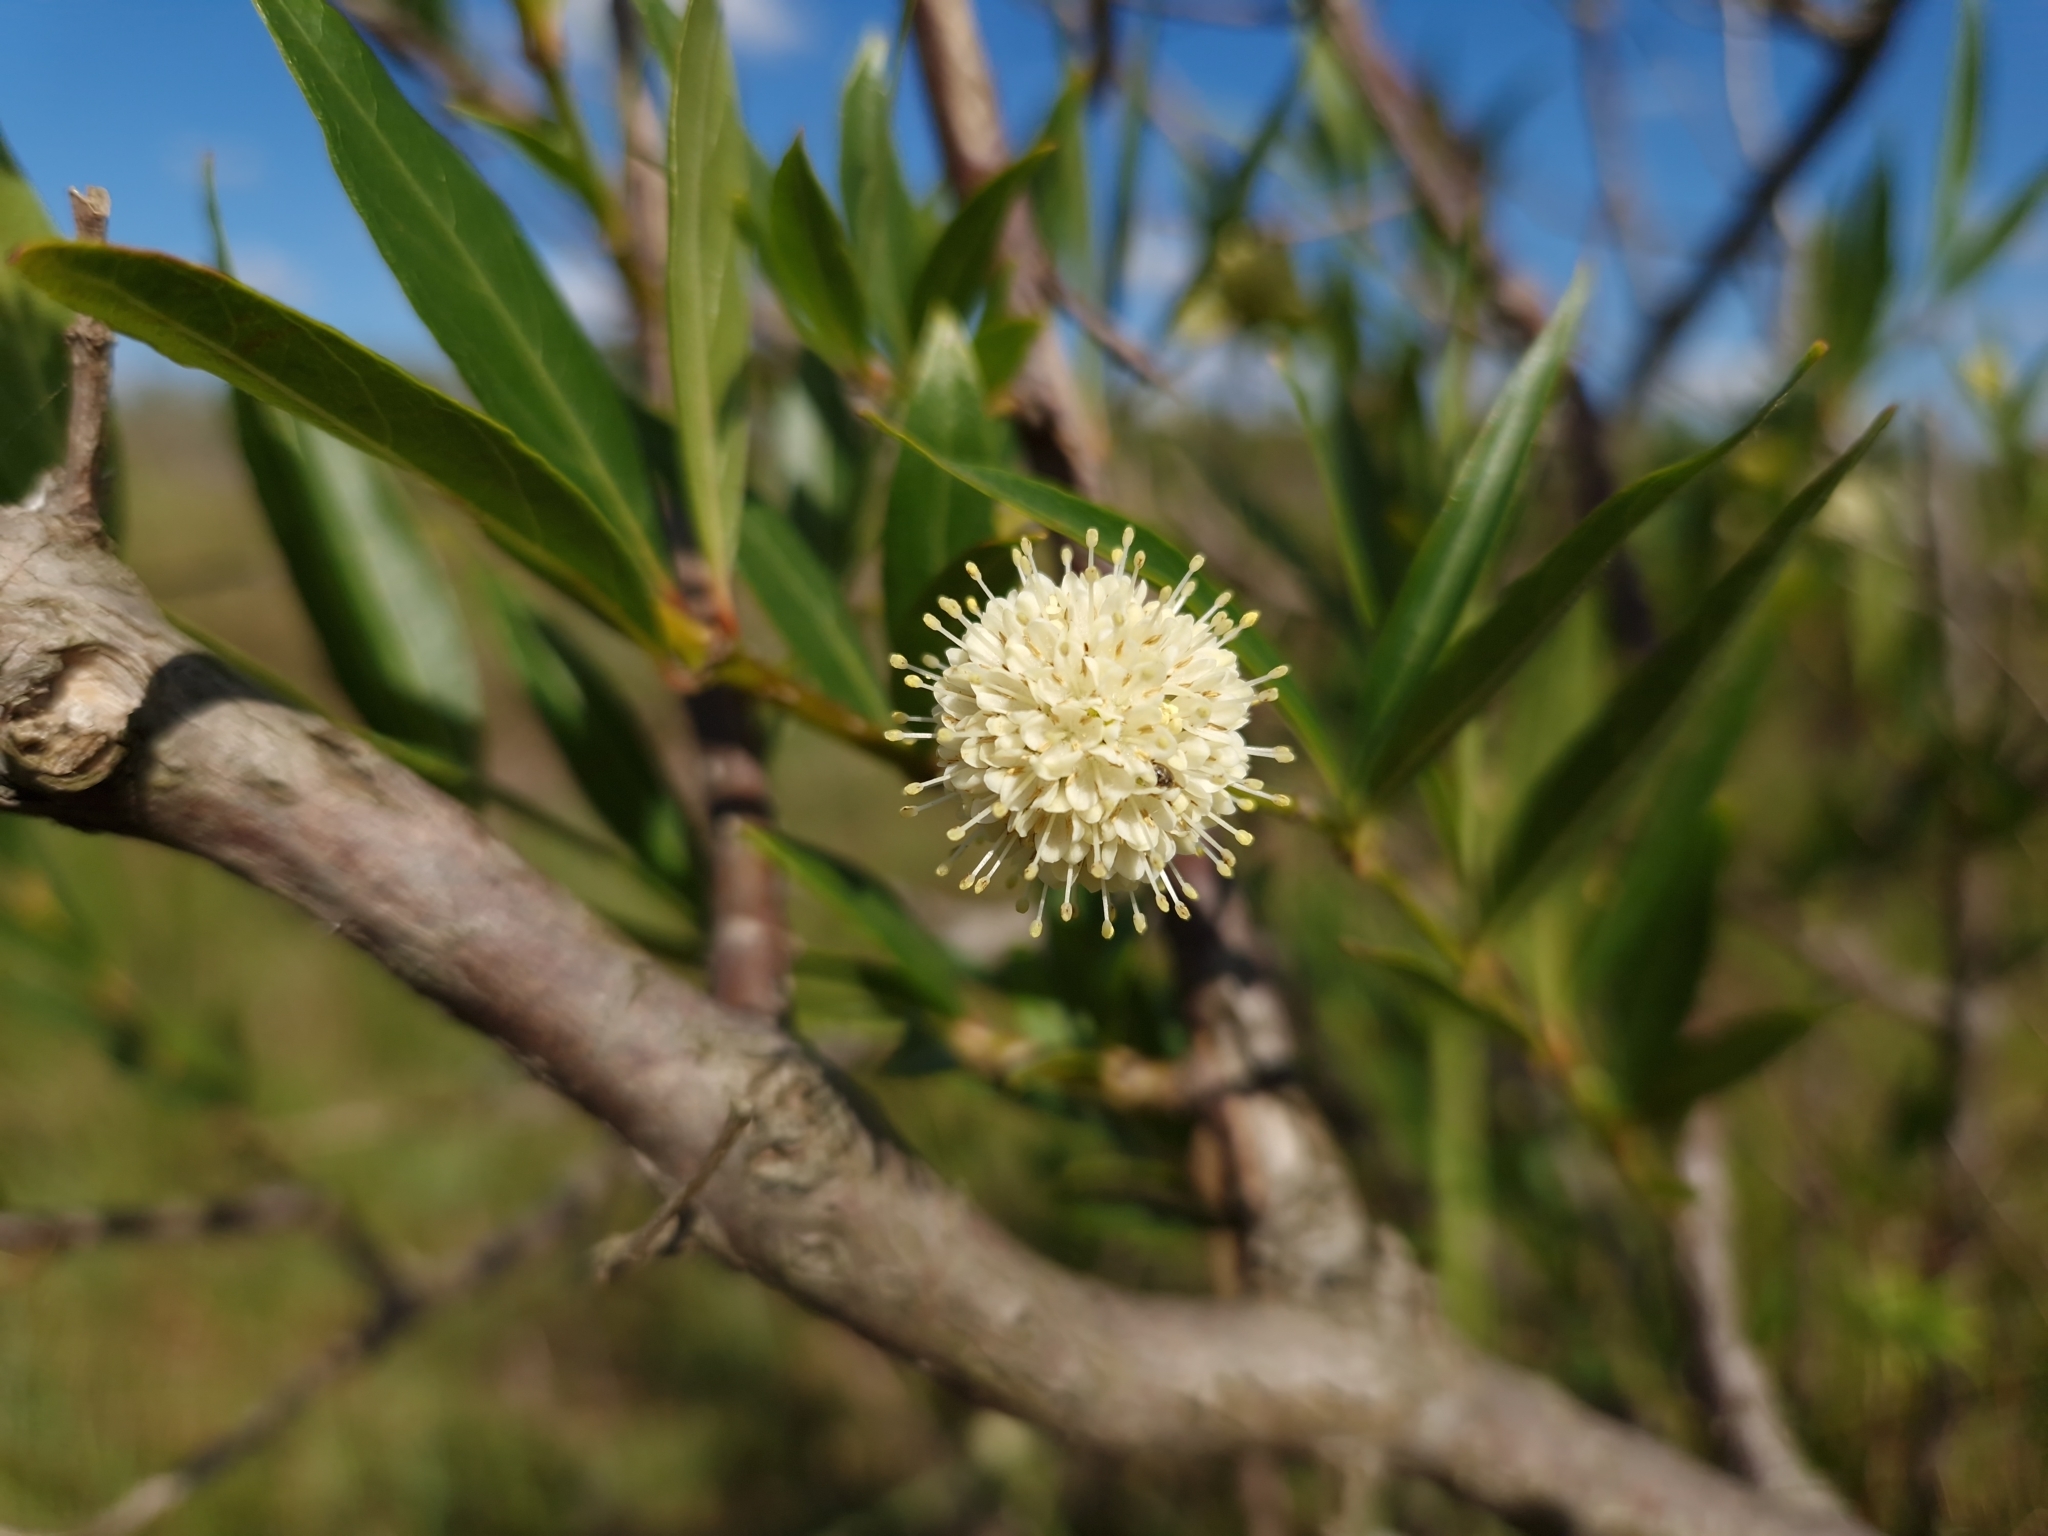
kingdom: Plantae
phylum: Tracheophyta
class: Magnoliopsida
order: Gentianales
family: Rubiaceae
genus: Cephalanthus
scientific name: Cephalanthus glabratus
